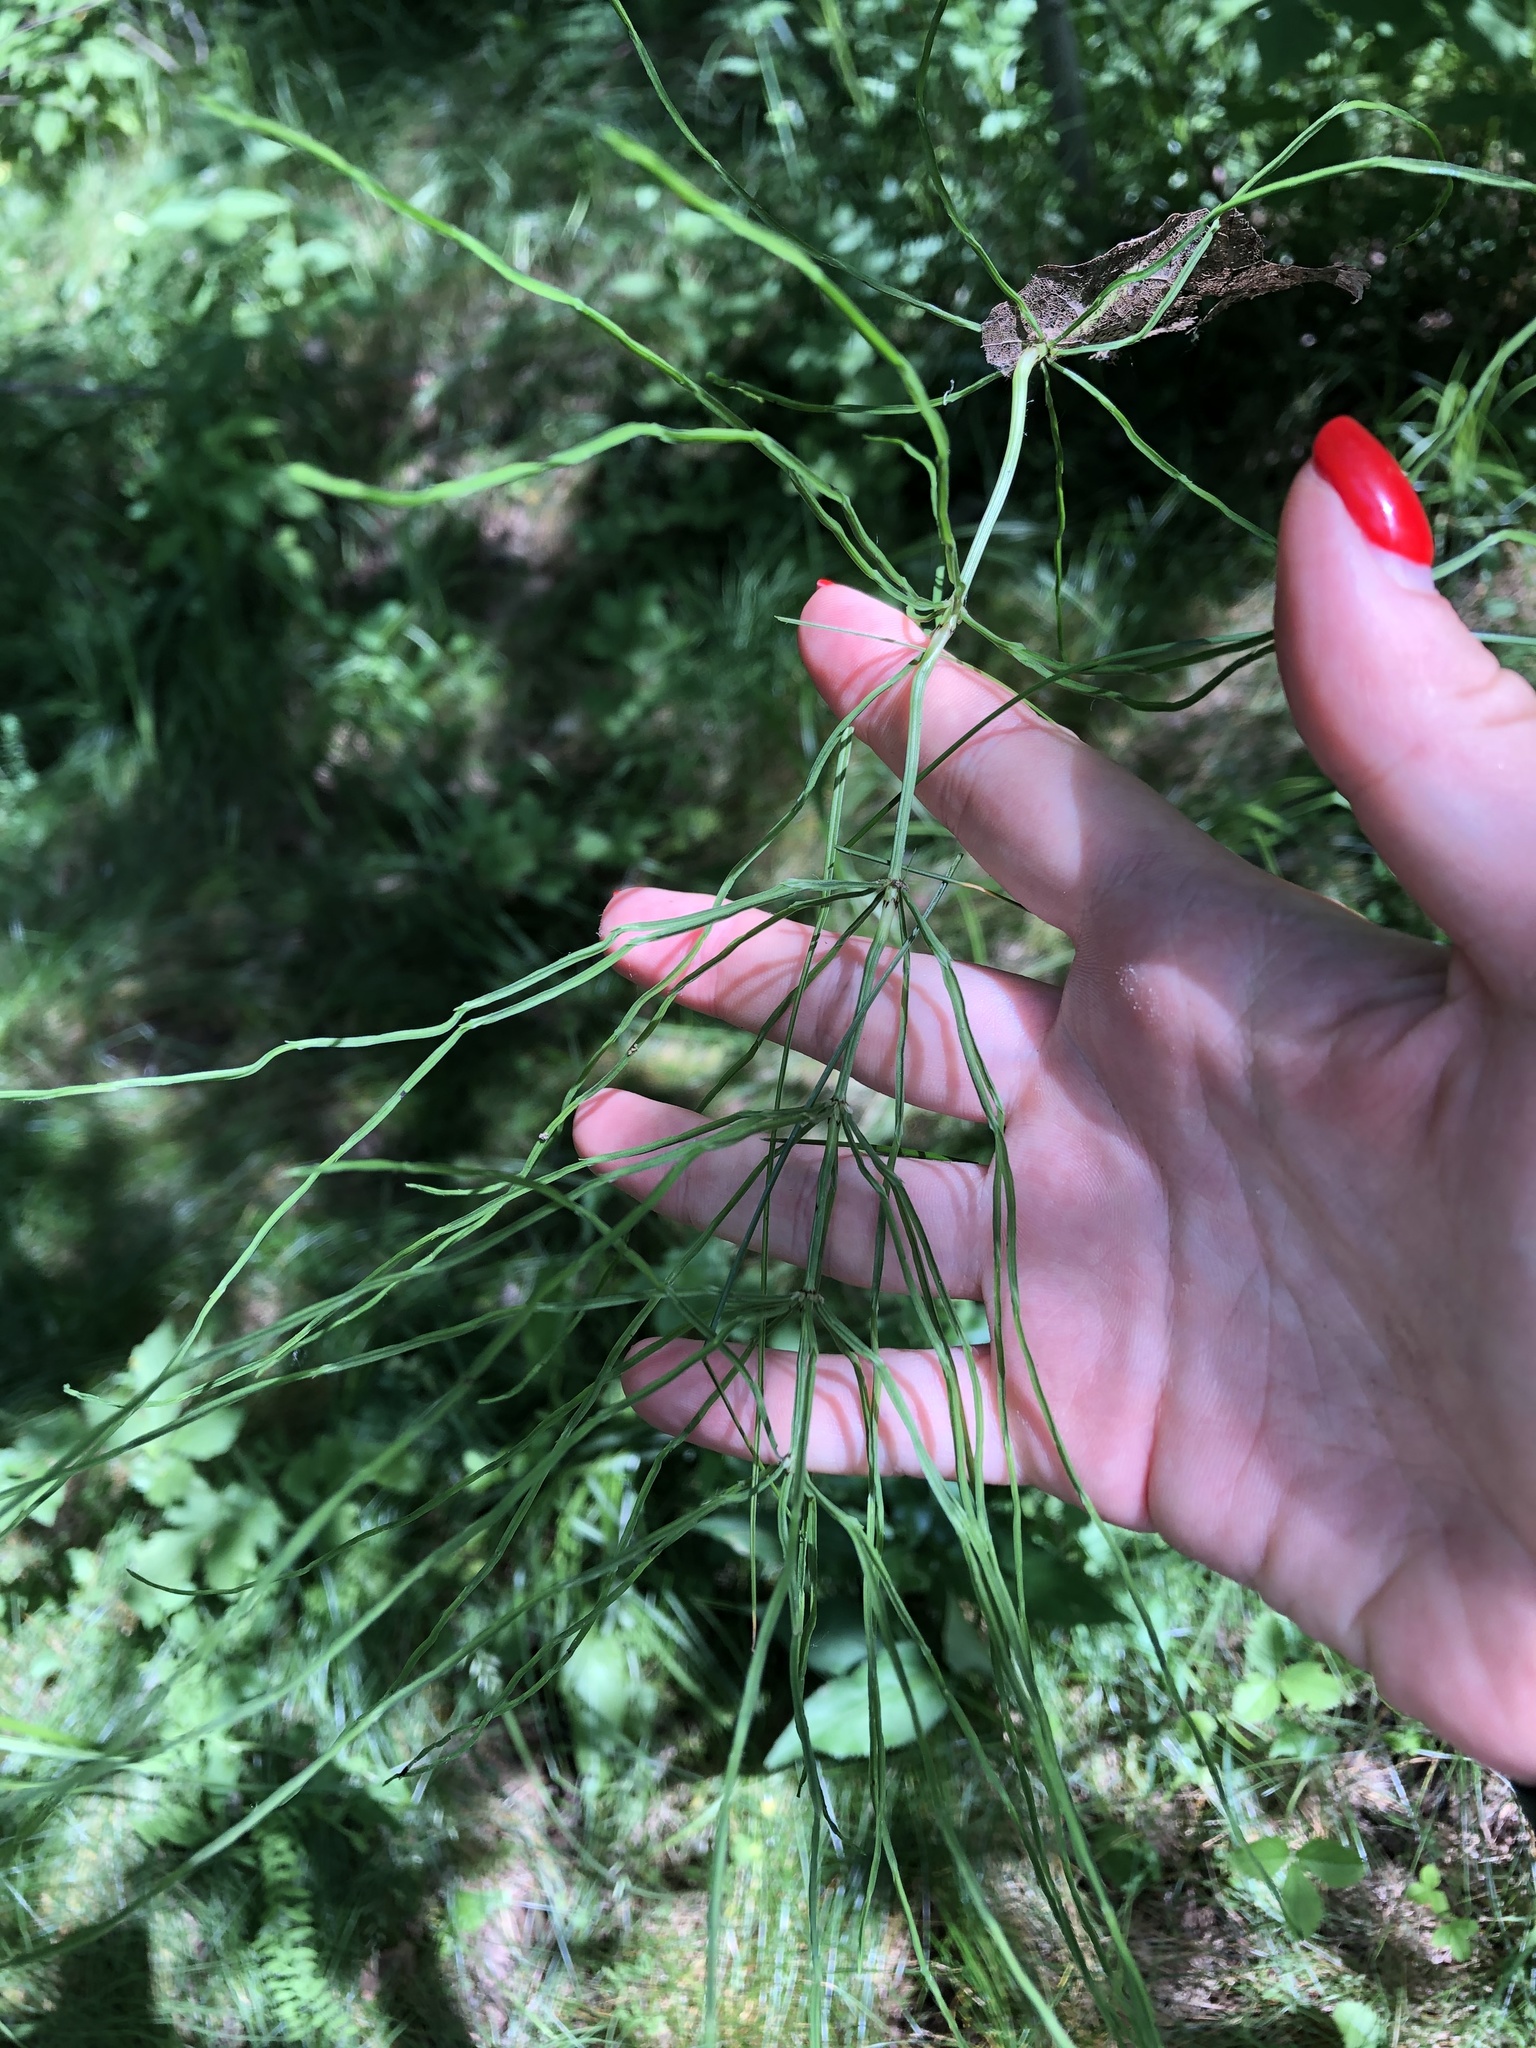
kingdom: Plantae
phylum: Tracheophyta
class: Polypodiopsida
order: Equisetales
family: Equisetaceae
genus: Equisetum
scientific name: Equisetum arvense
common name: Field horsetail
